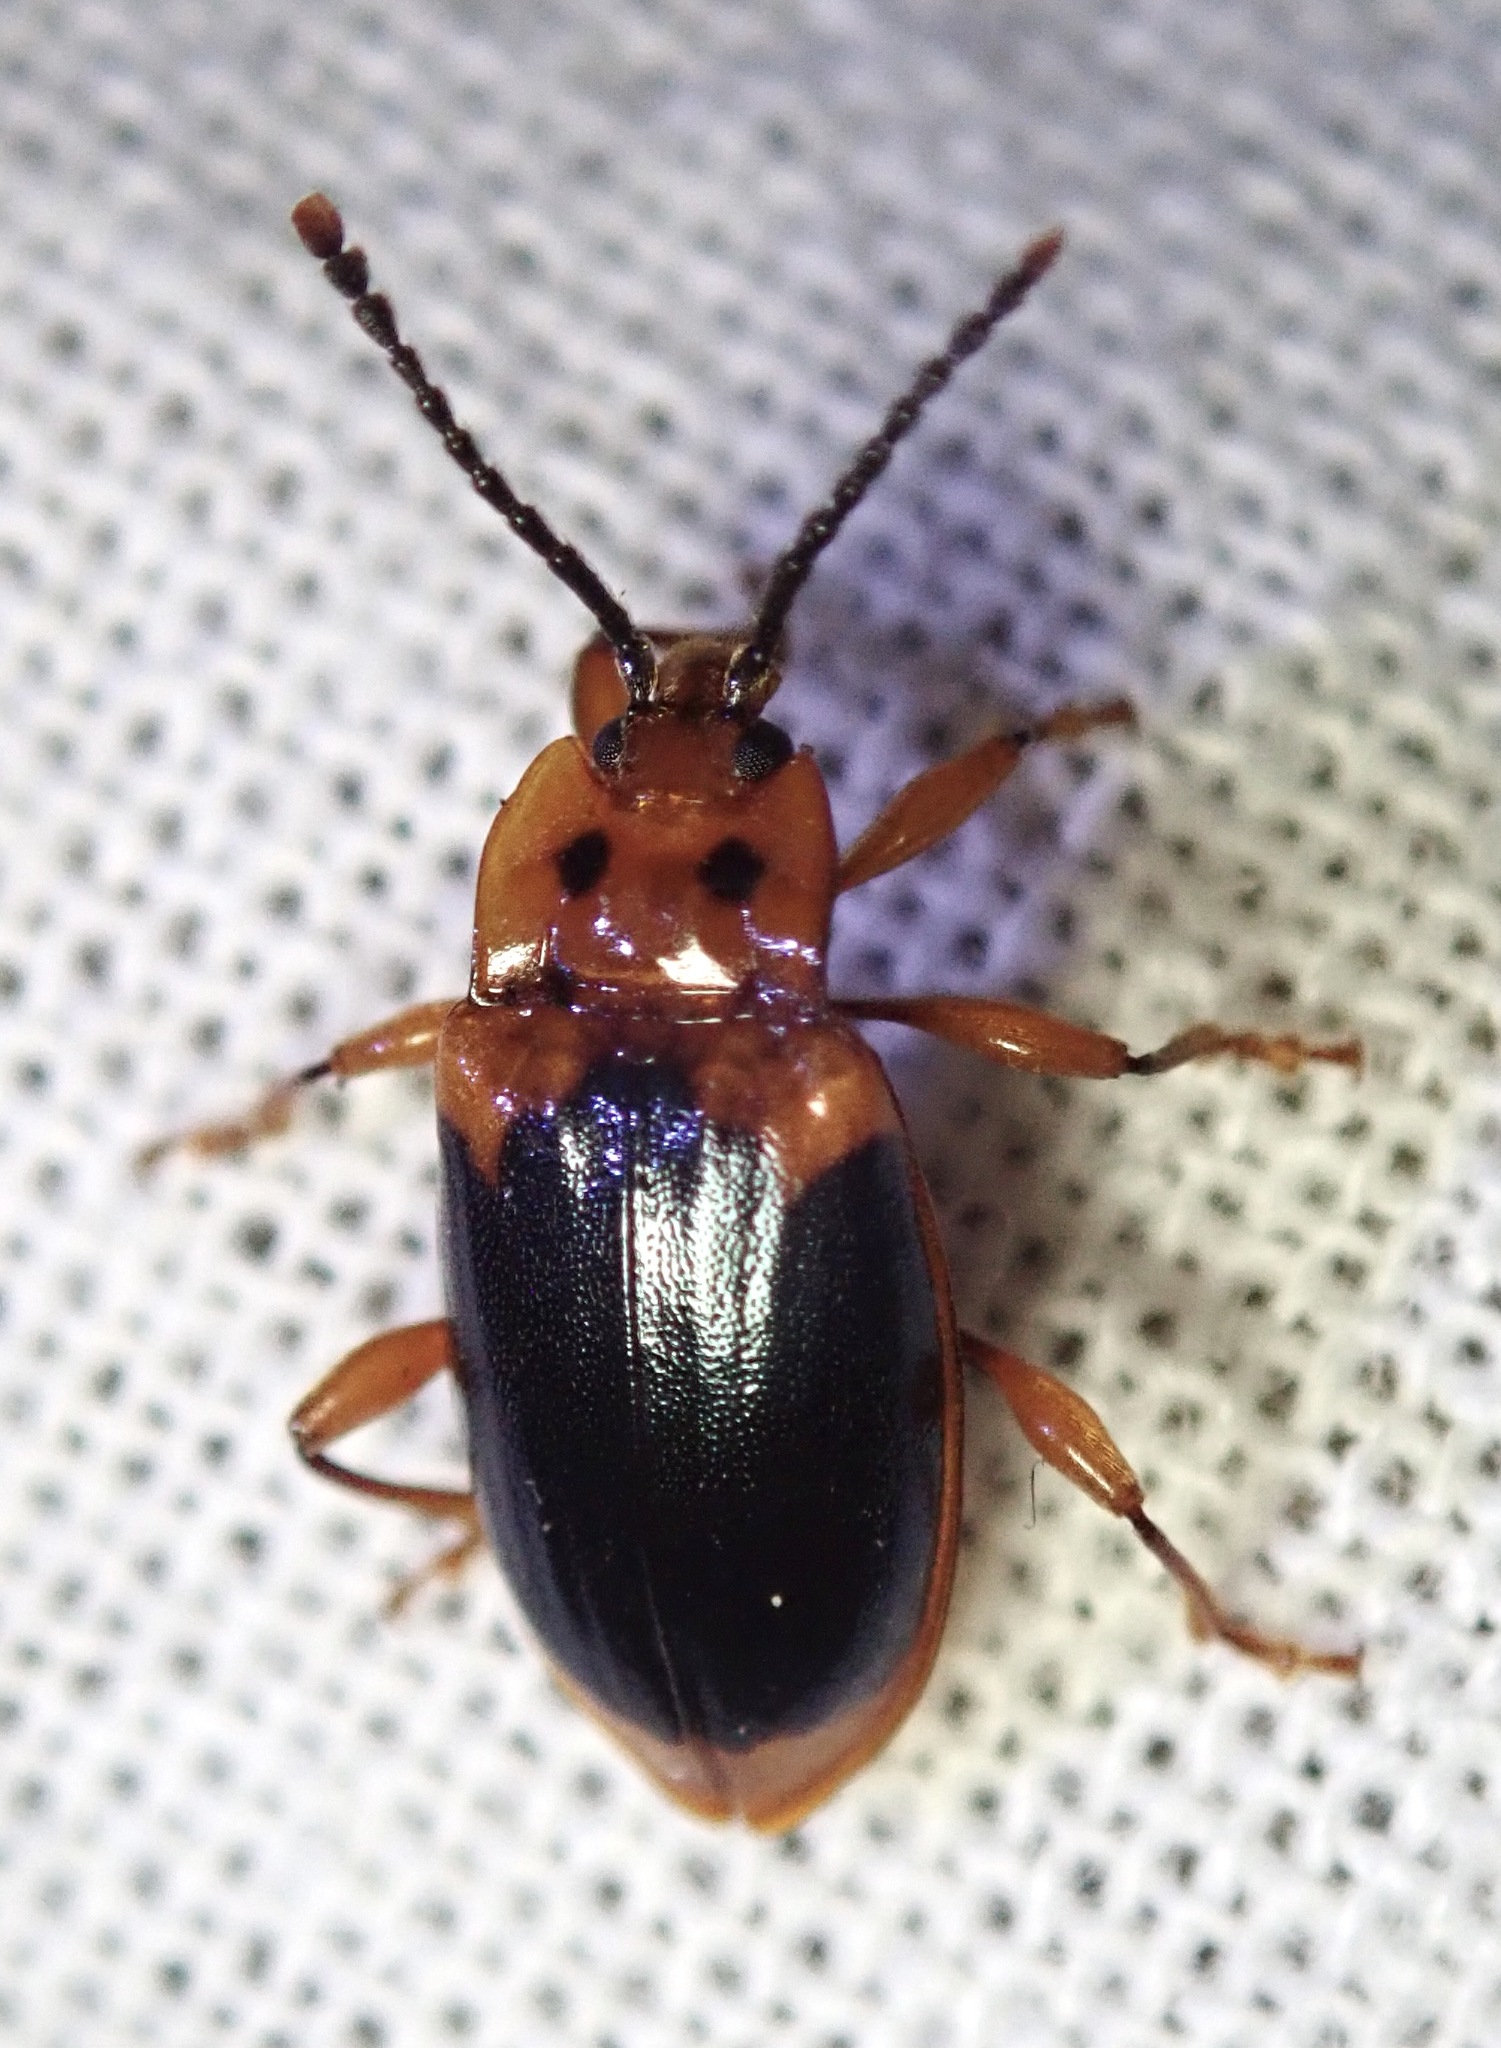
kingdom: Animalia
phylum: Arthropoda
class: Insecta
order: Coleoptera
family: Endomychidae
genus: Aphorista
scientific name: Aphorista laeta
